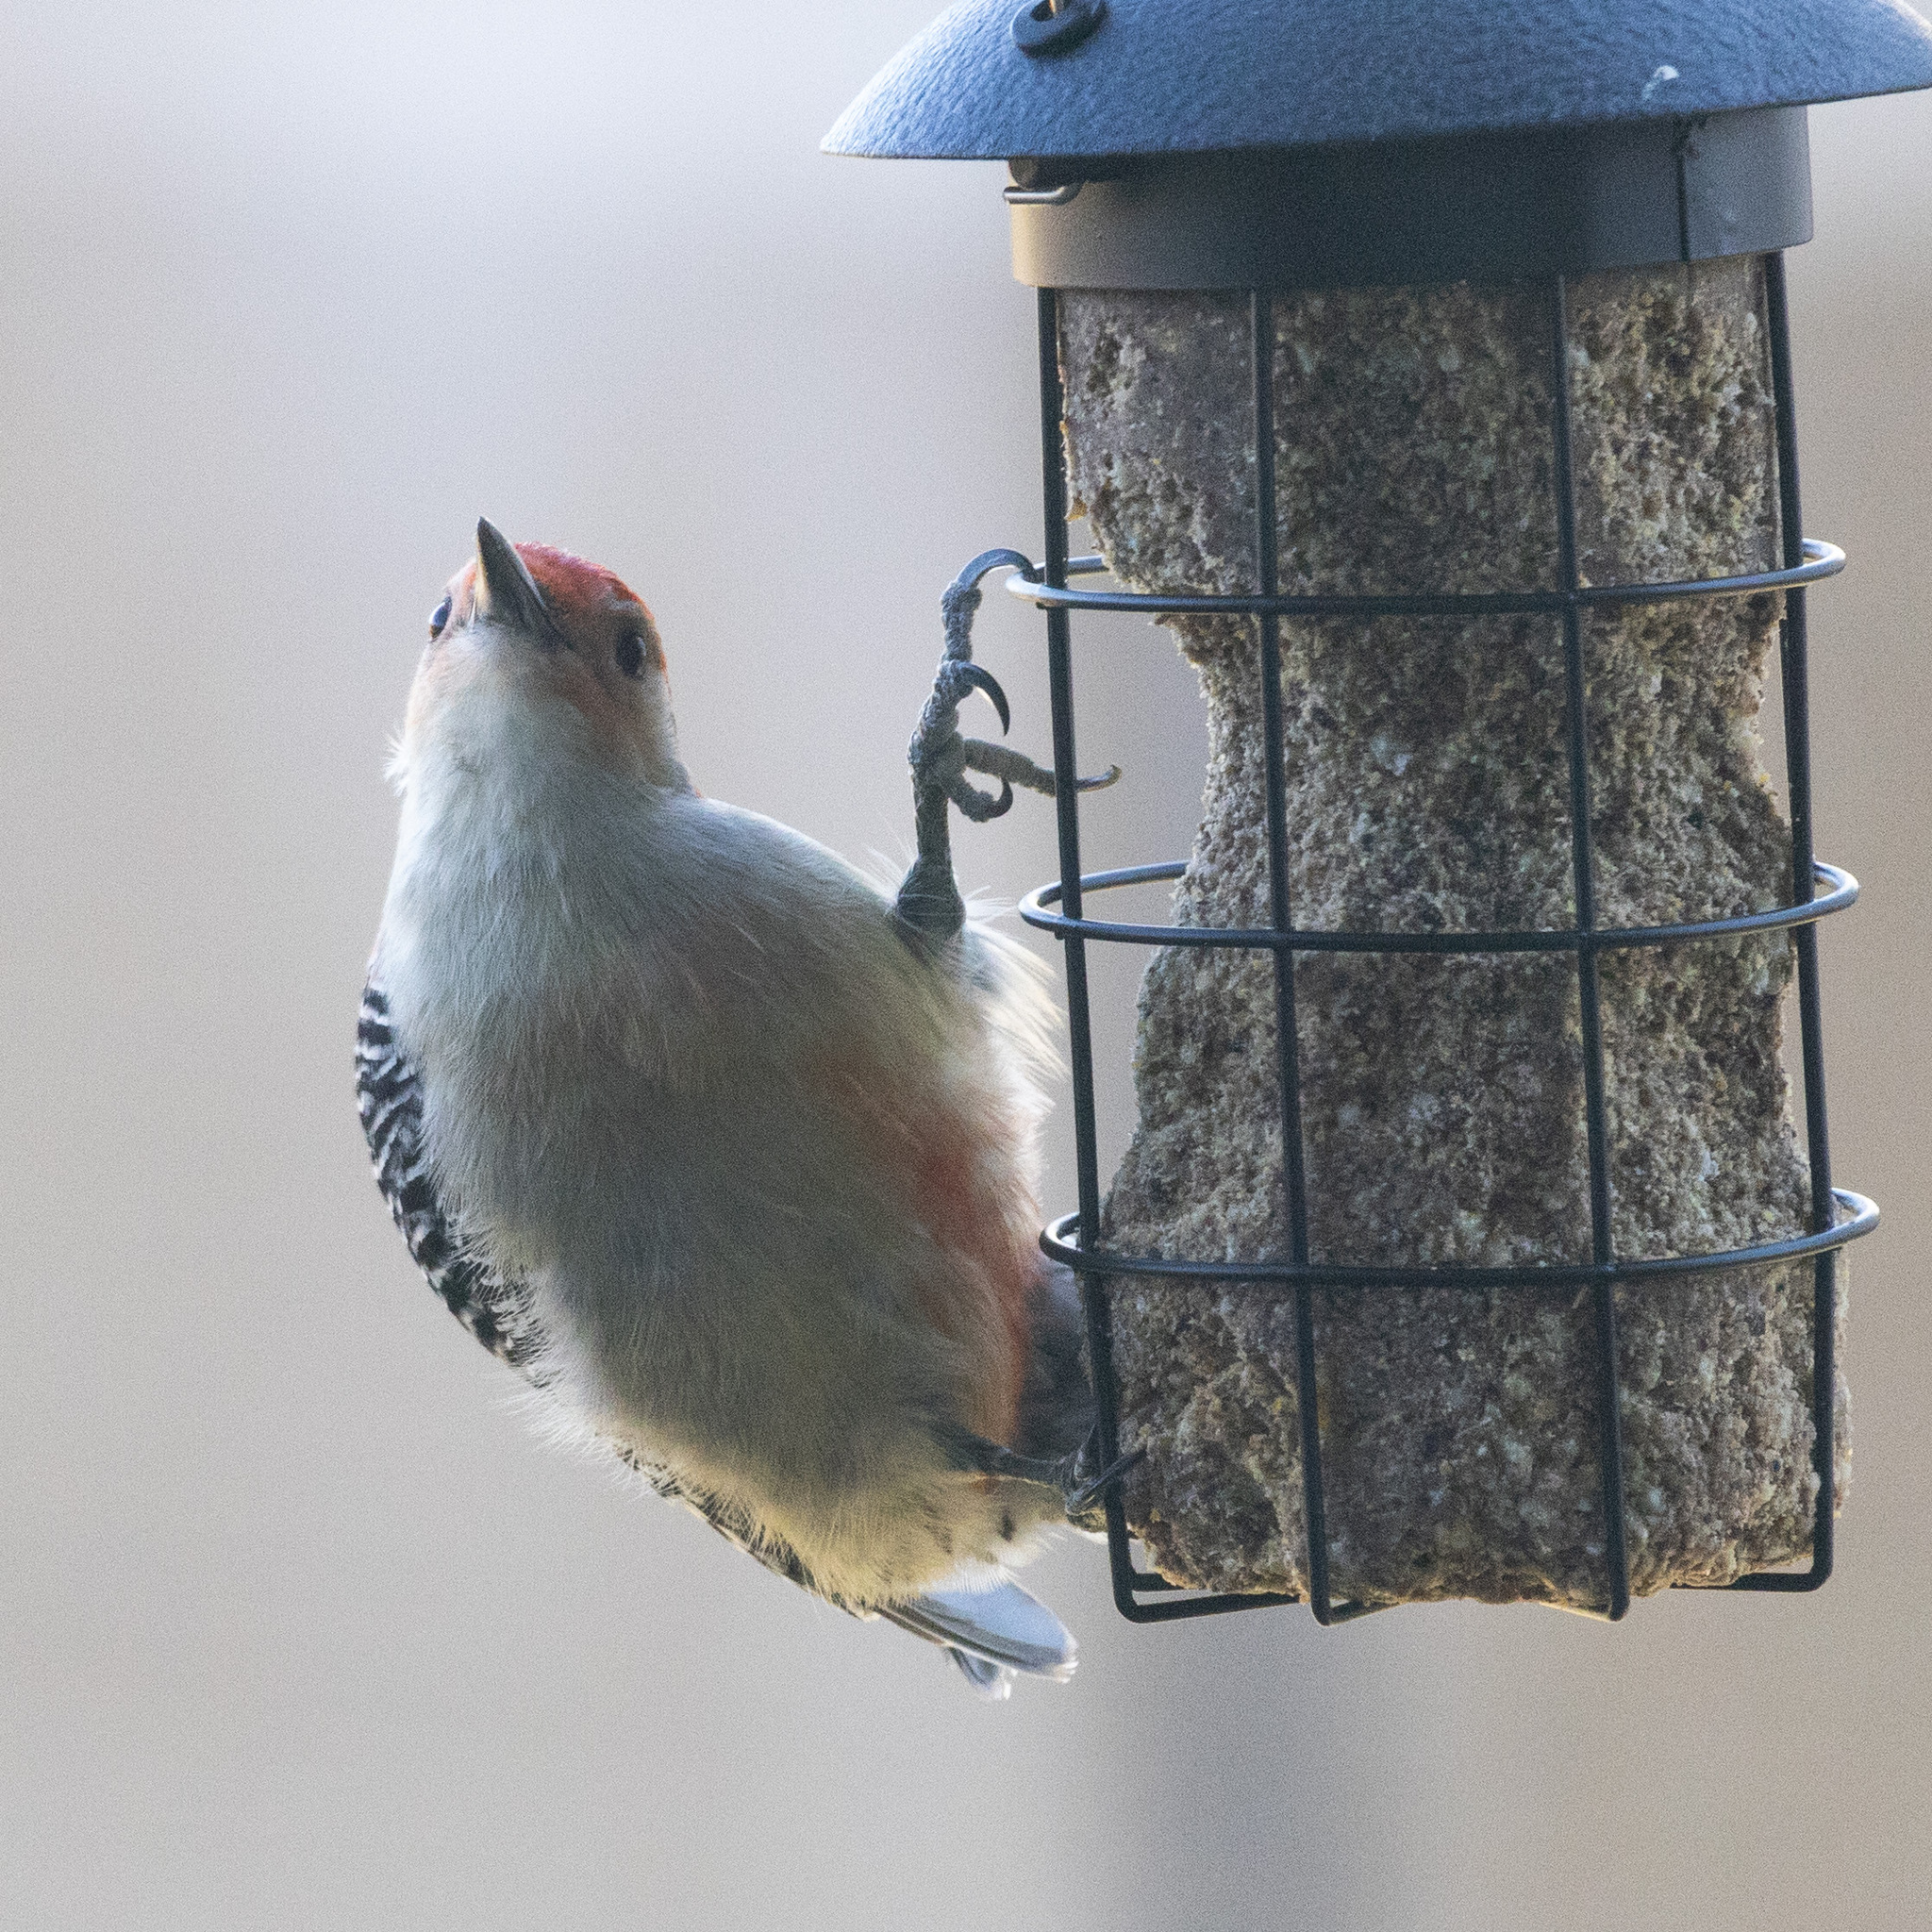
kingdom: Animalia
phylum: Chordata
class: Aves
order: Piciformes
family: Picidae
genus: Melanerpes
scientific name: Melanerpes carolinus
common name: Red-bellied woodpecker
